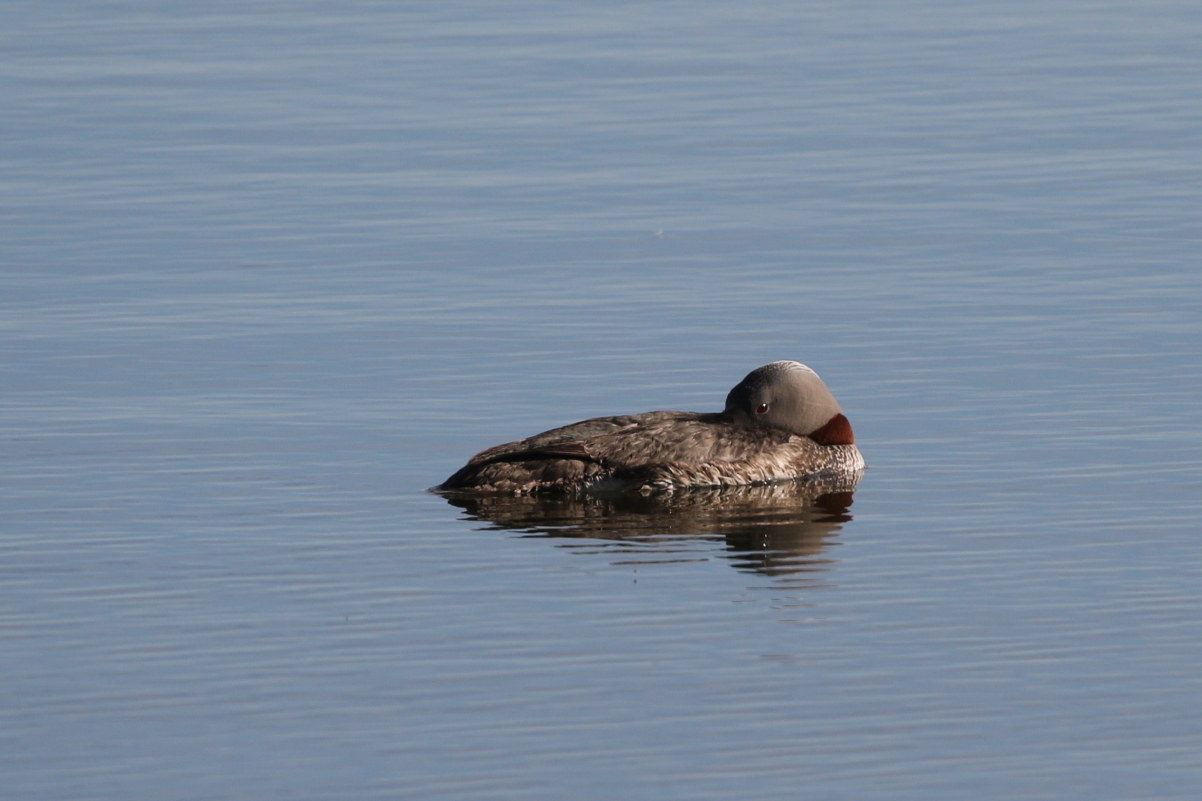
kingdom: Animalia
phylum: Chordata
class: Aves
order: Gaviiformes
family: Gaviidae
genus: Gavia
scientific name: Gavia stellata
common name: Red-throated loon
